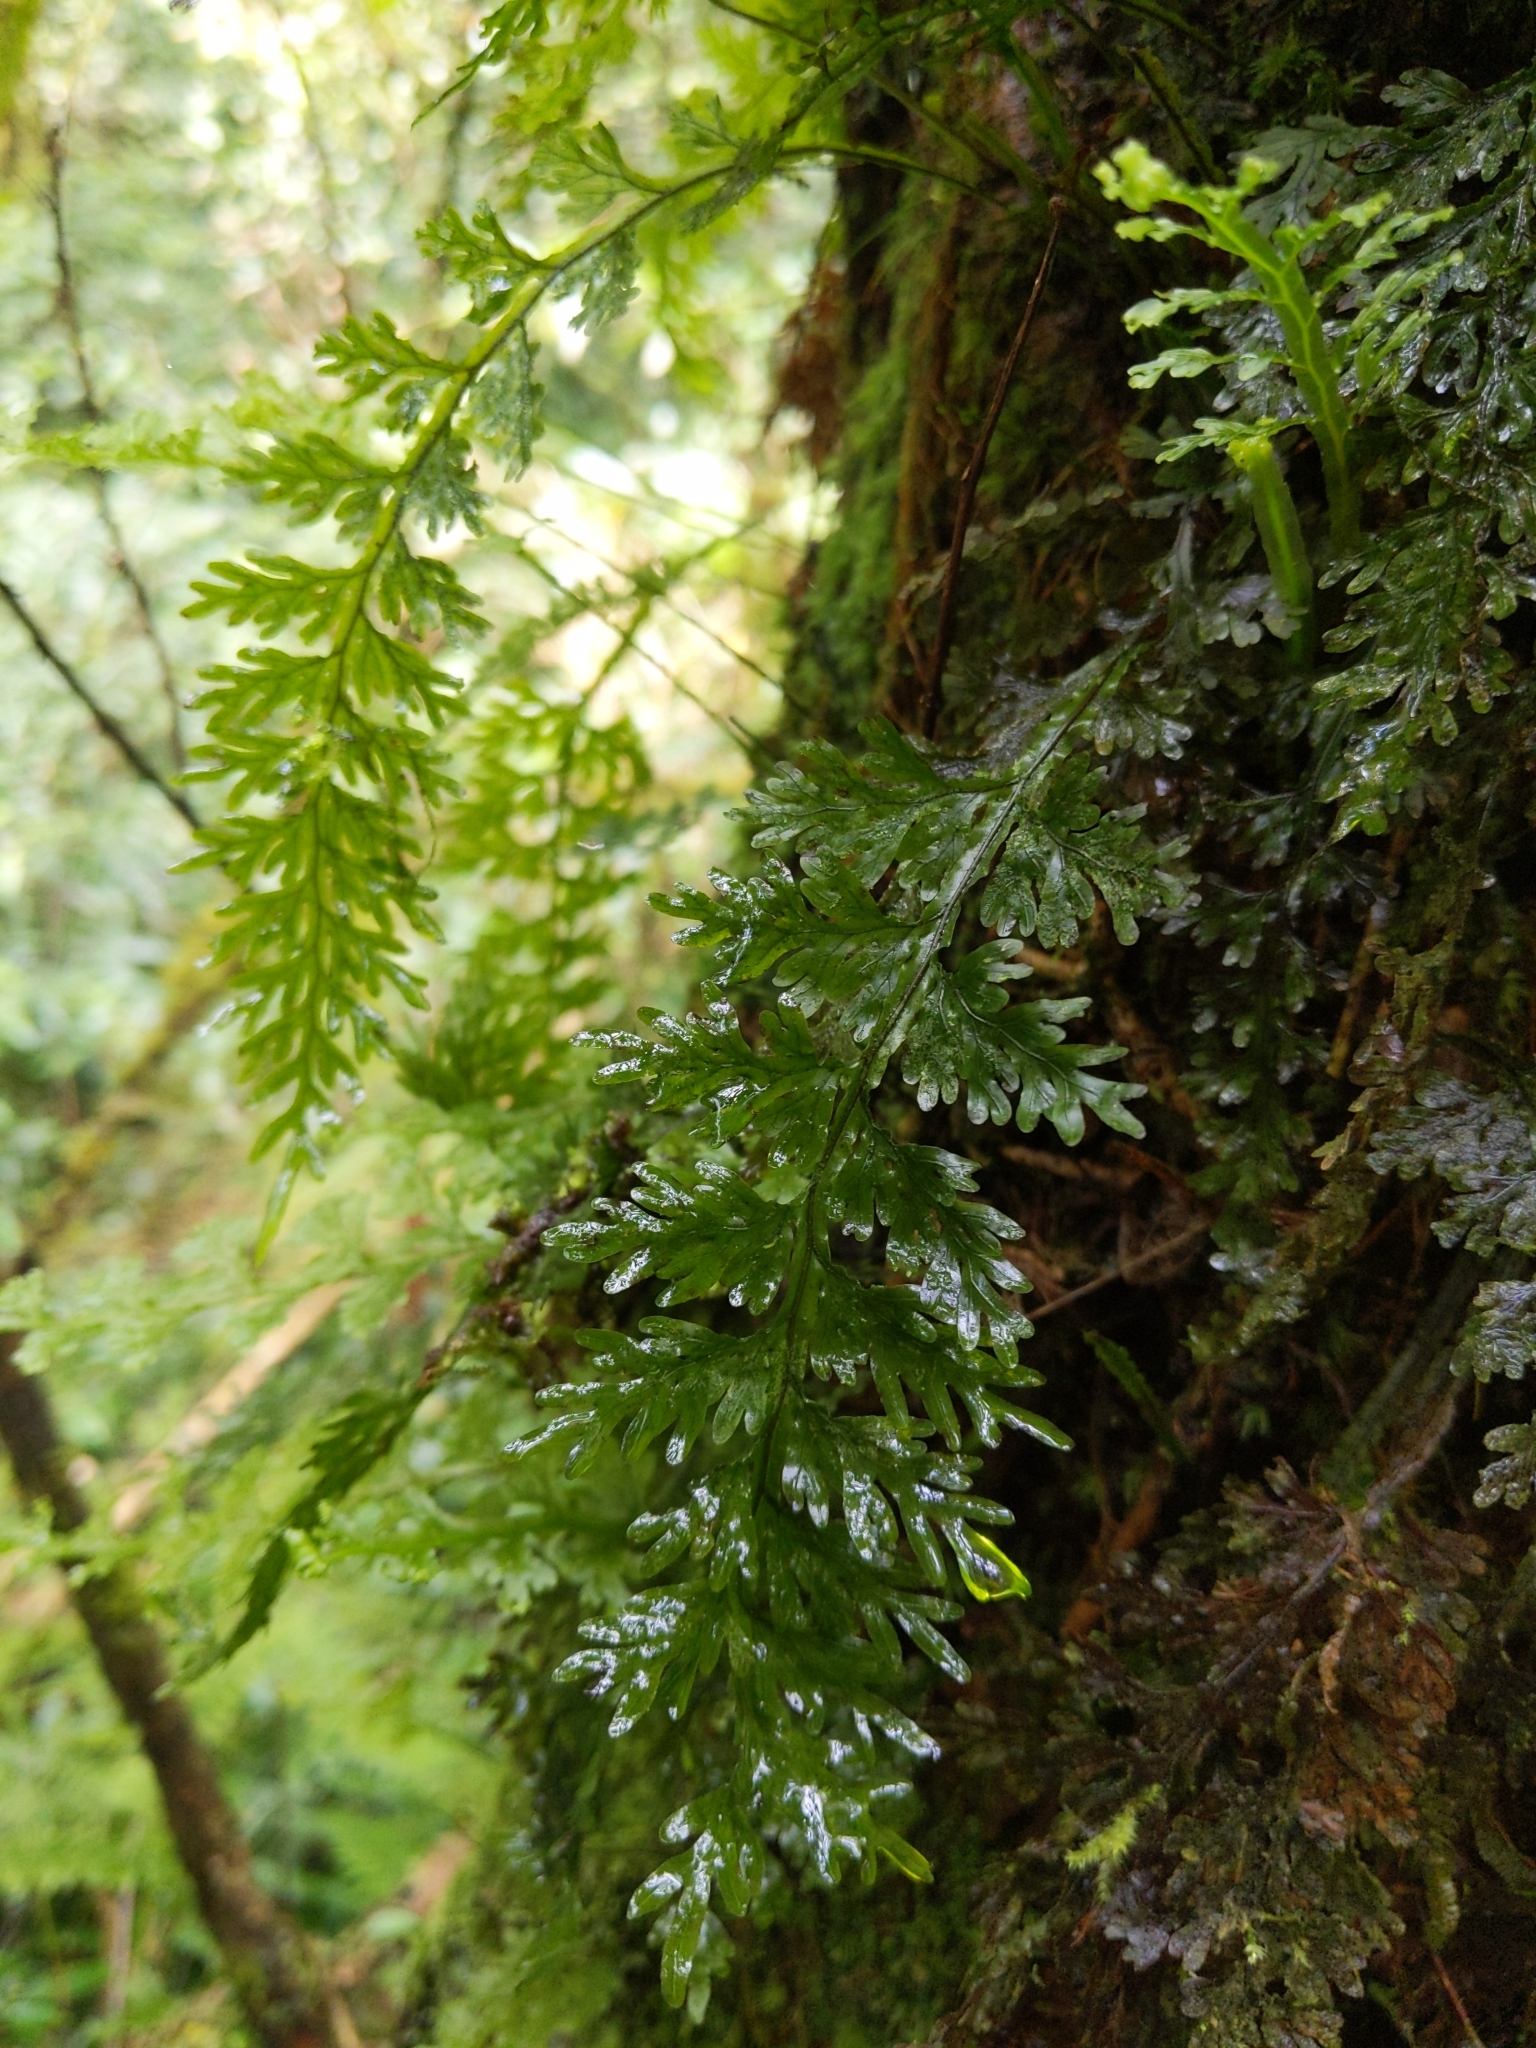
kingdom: Plantae
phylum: Tracheophyta
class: Polypodiopsida
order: Hymenophyllales
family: Hymenophyllaceae
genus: Hymenophyllum
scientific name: Hymenophyllum badium
